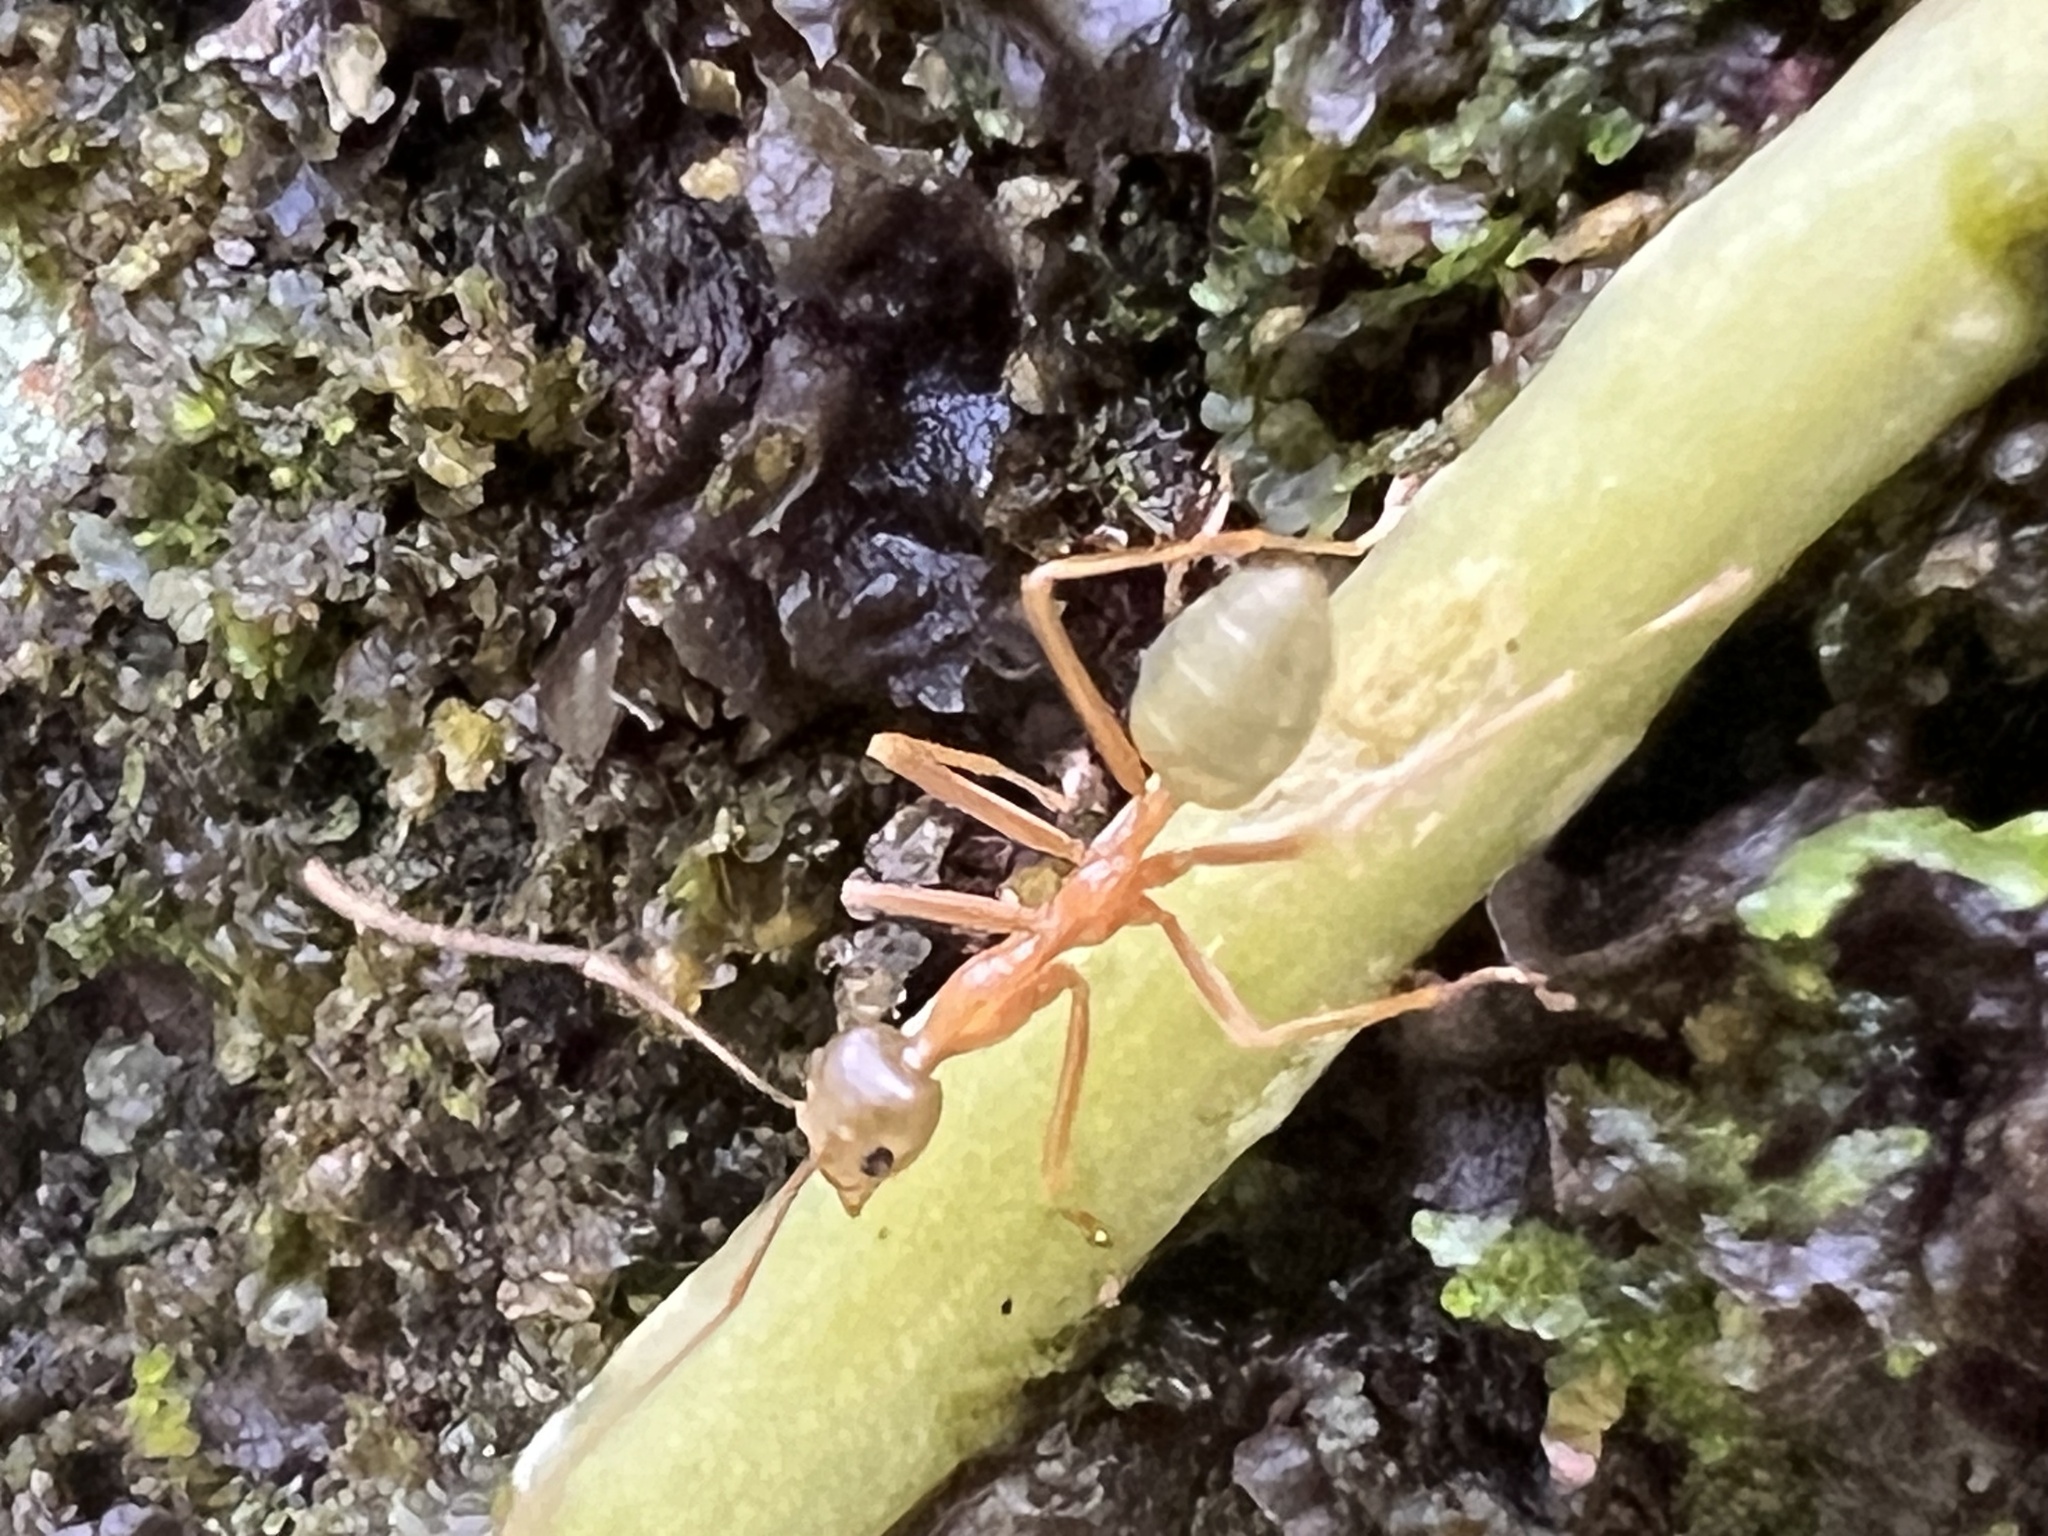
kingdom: Animalia
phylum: Arthropoda
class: Insecta
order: Hymenoptera
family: Formicidae
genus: Oecophylla
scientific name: Oecophylla smaragdina
